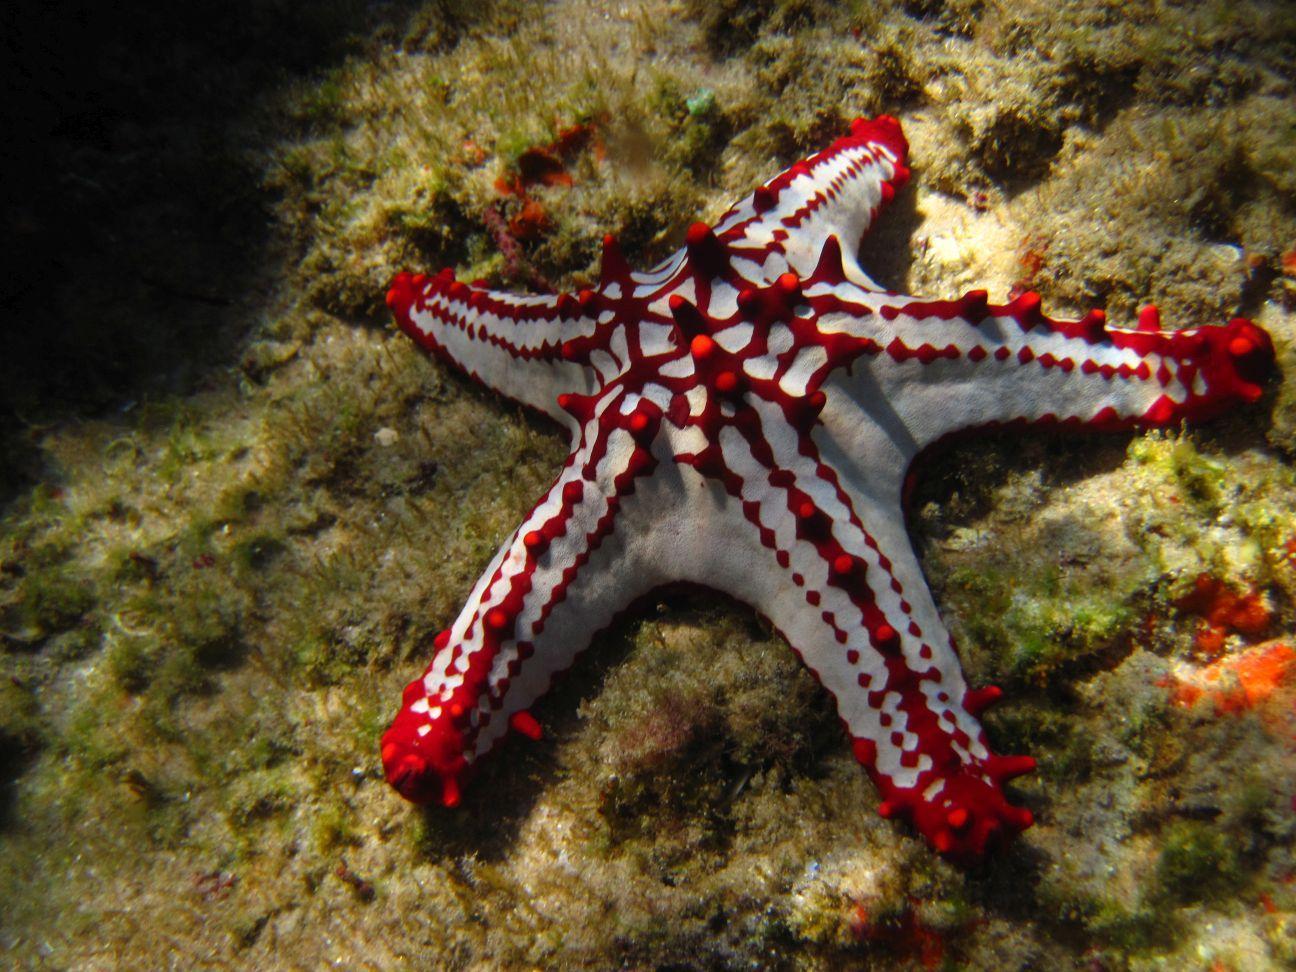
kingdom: Animalia
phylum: Echinodermata
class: Asteroidea
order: Valvatida
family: Oreasteridae
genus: Protoreaster
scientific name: Protoreaster lincki
